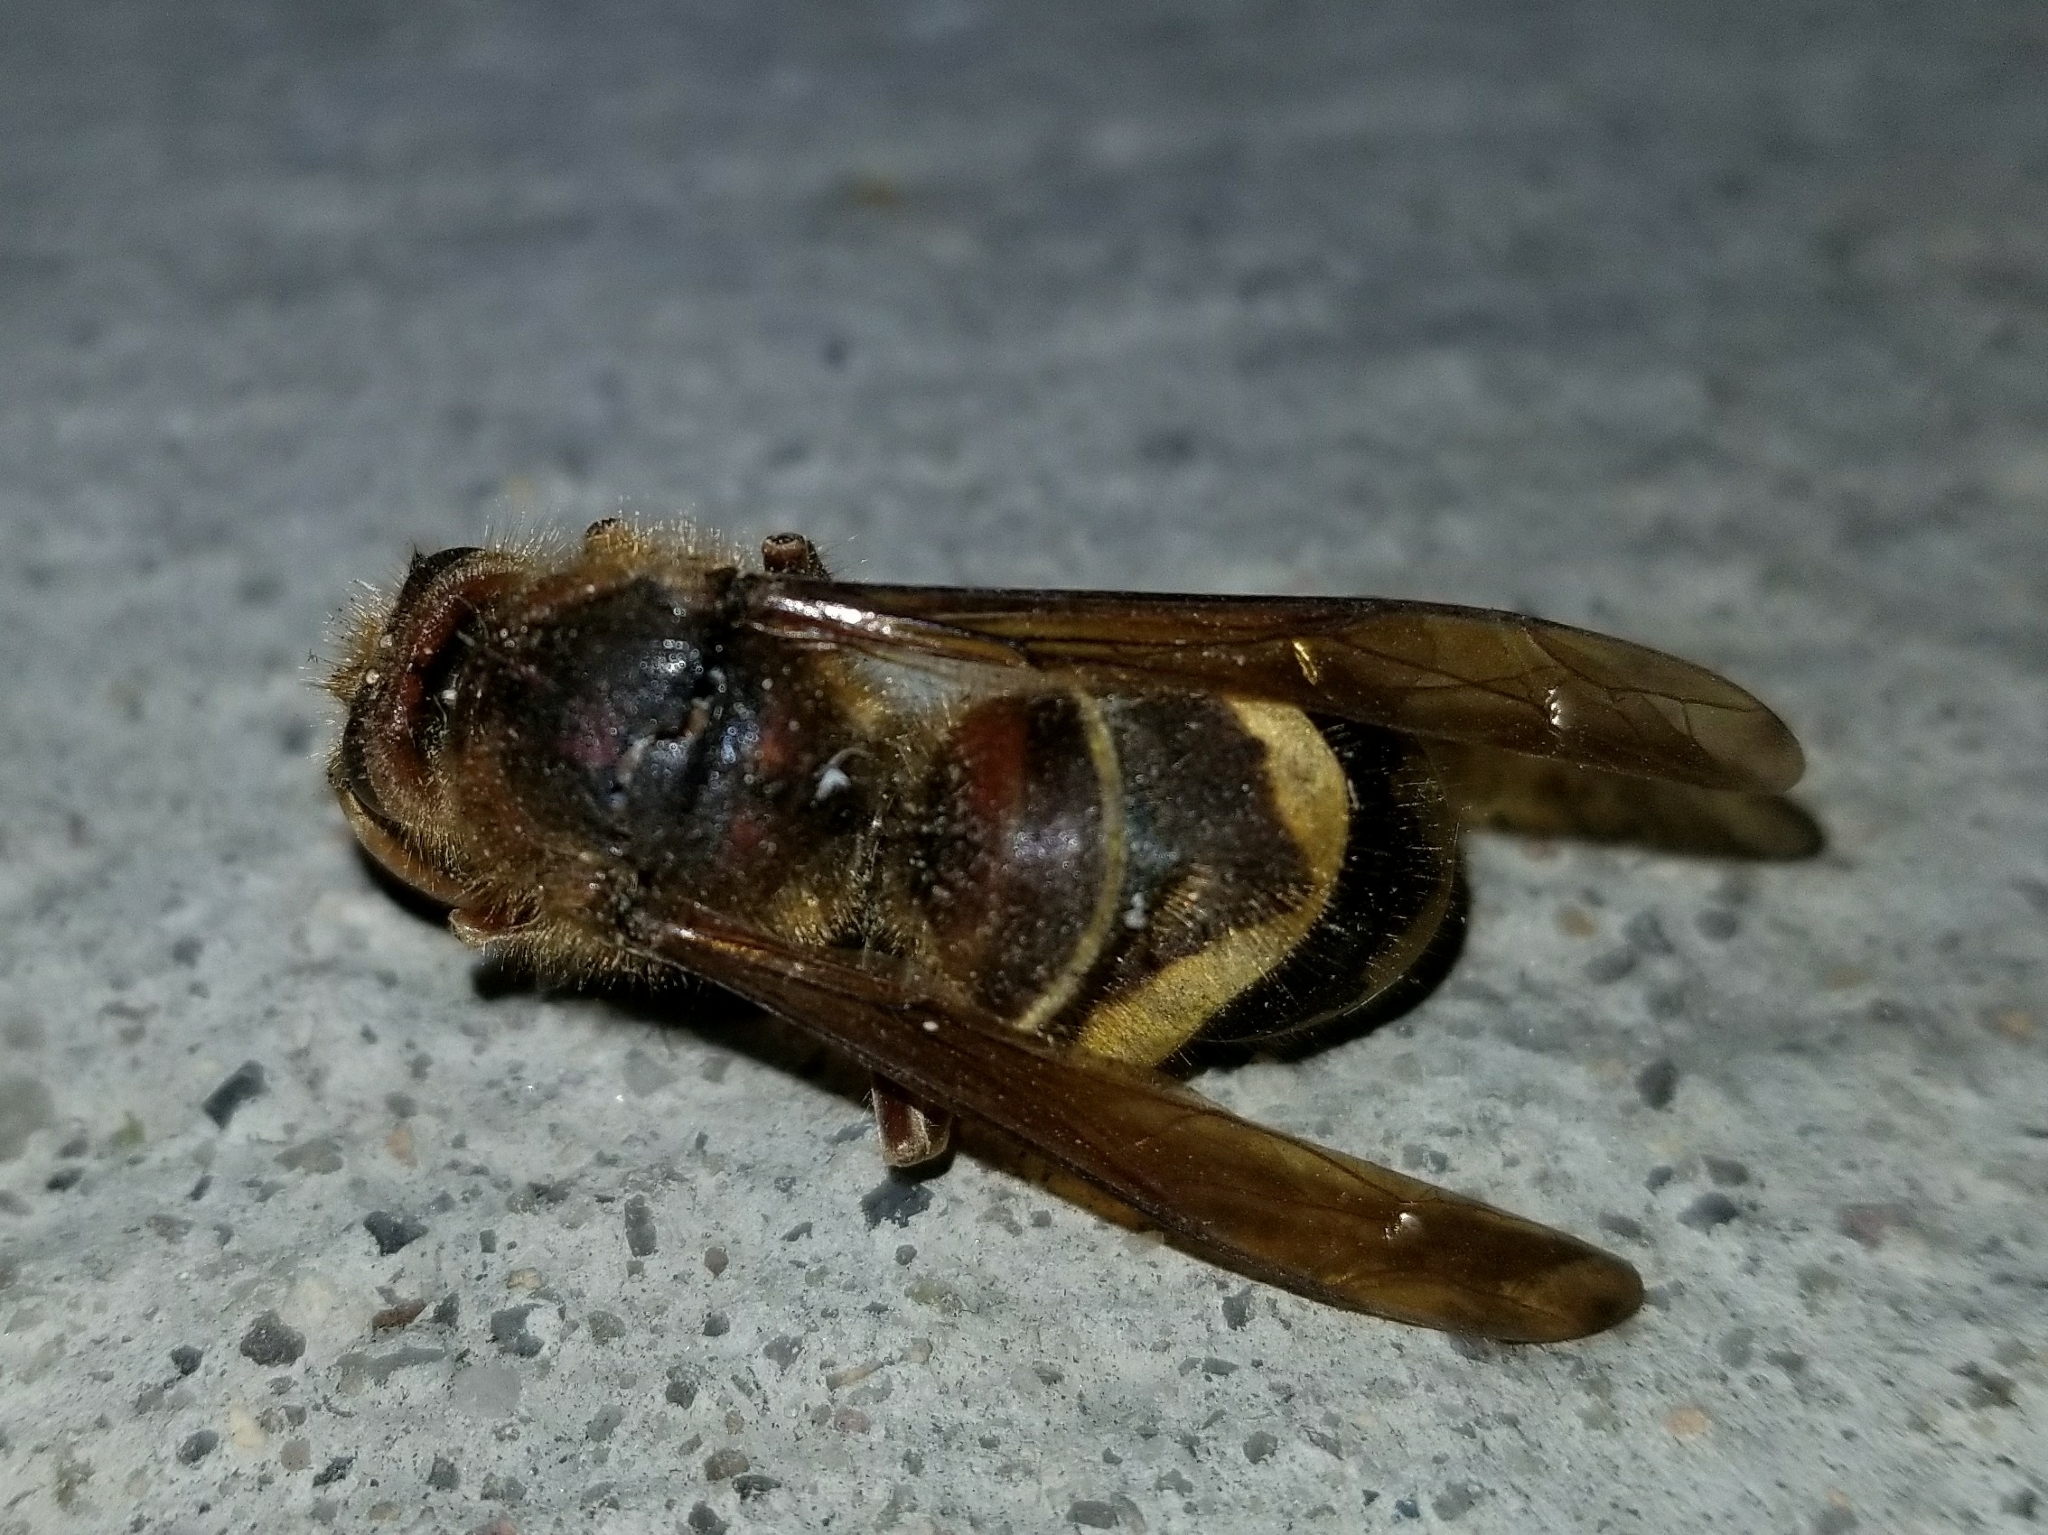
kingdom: Animalia
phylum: Arthropoda
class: Insecta
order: Hymenoptera
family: Vespidae
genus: Vespa
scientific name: Vespa crabro
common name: Hornet
